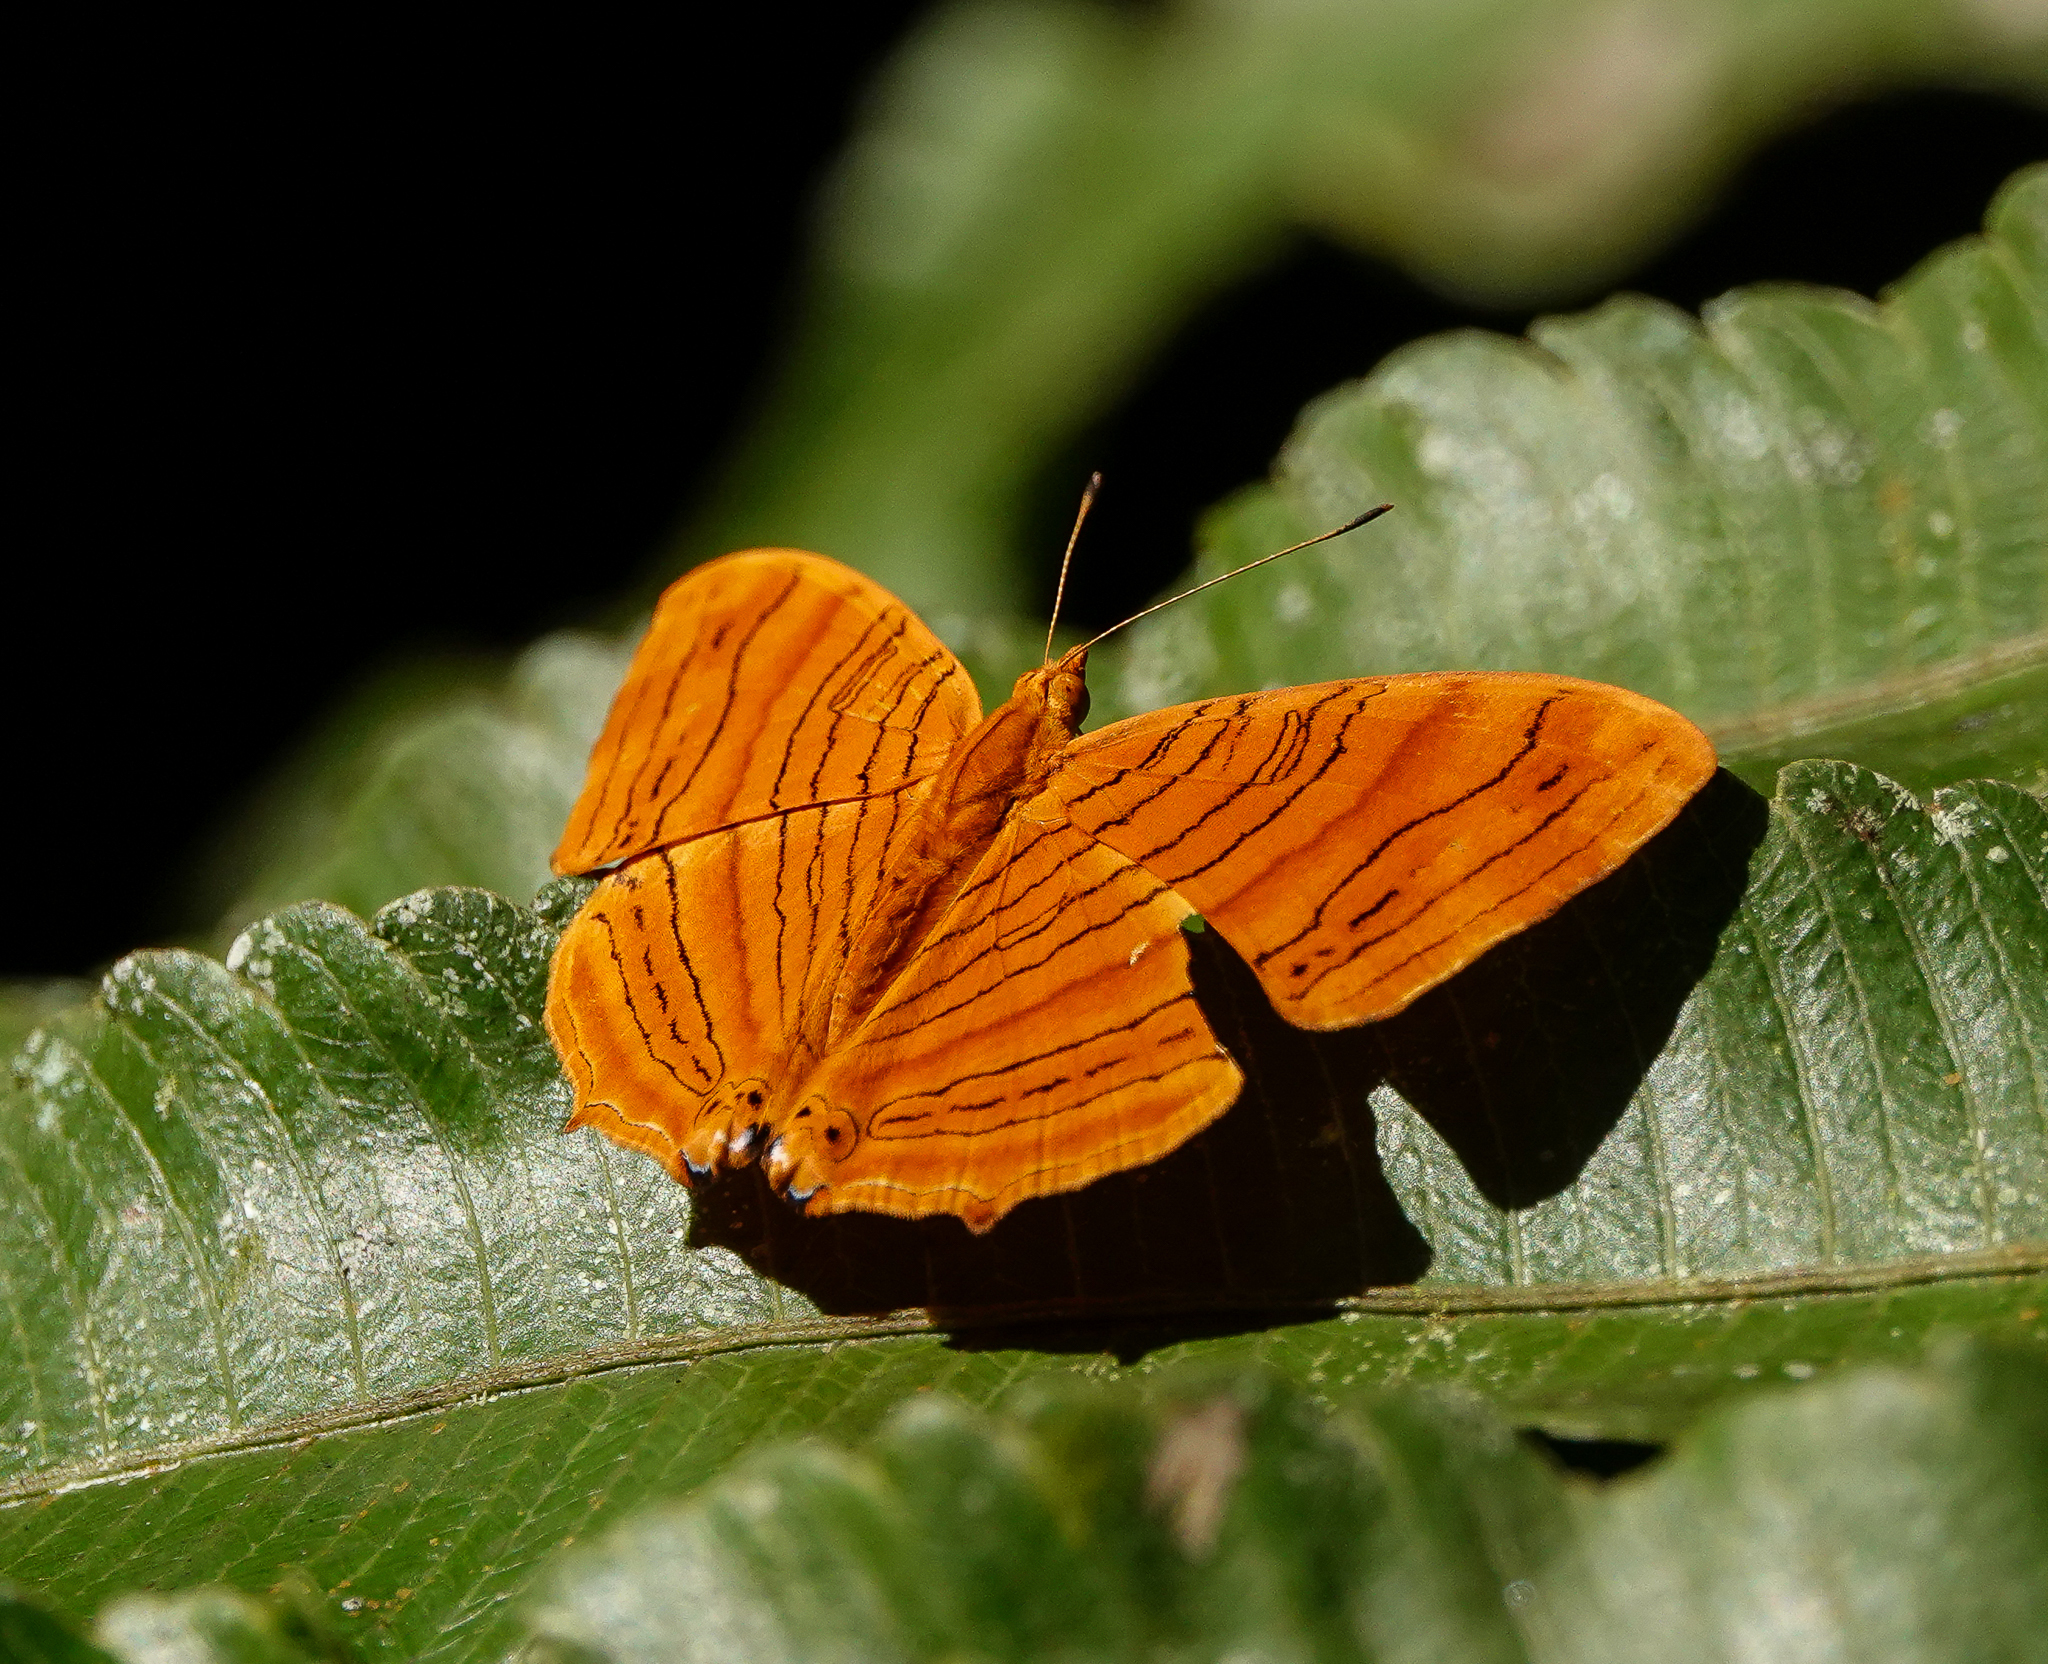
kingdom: Animalia
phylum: Arthropoda
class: Insecta
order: Lepidoptera
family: Nymphalidae
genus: Chersonesia
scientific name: Chersonesia intermedia
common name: Intermediate maplet
